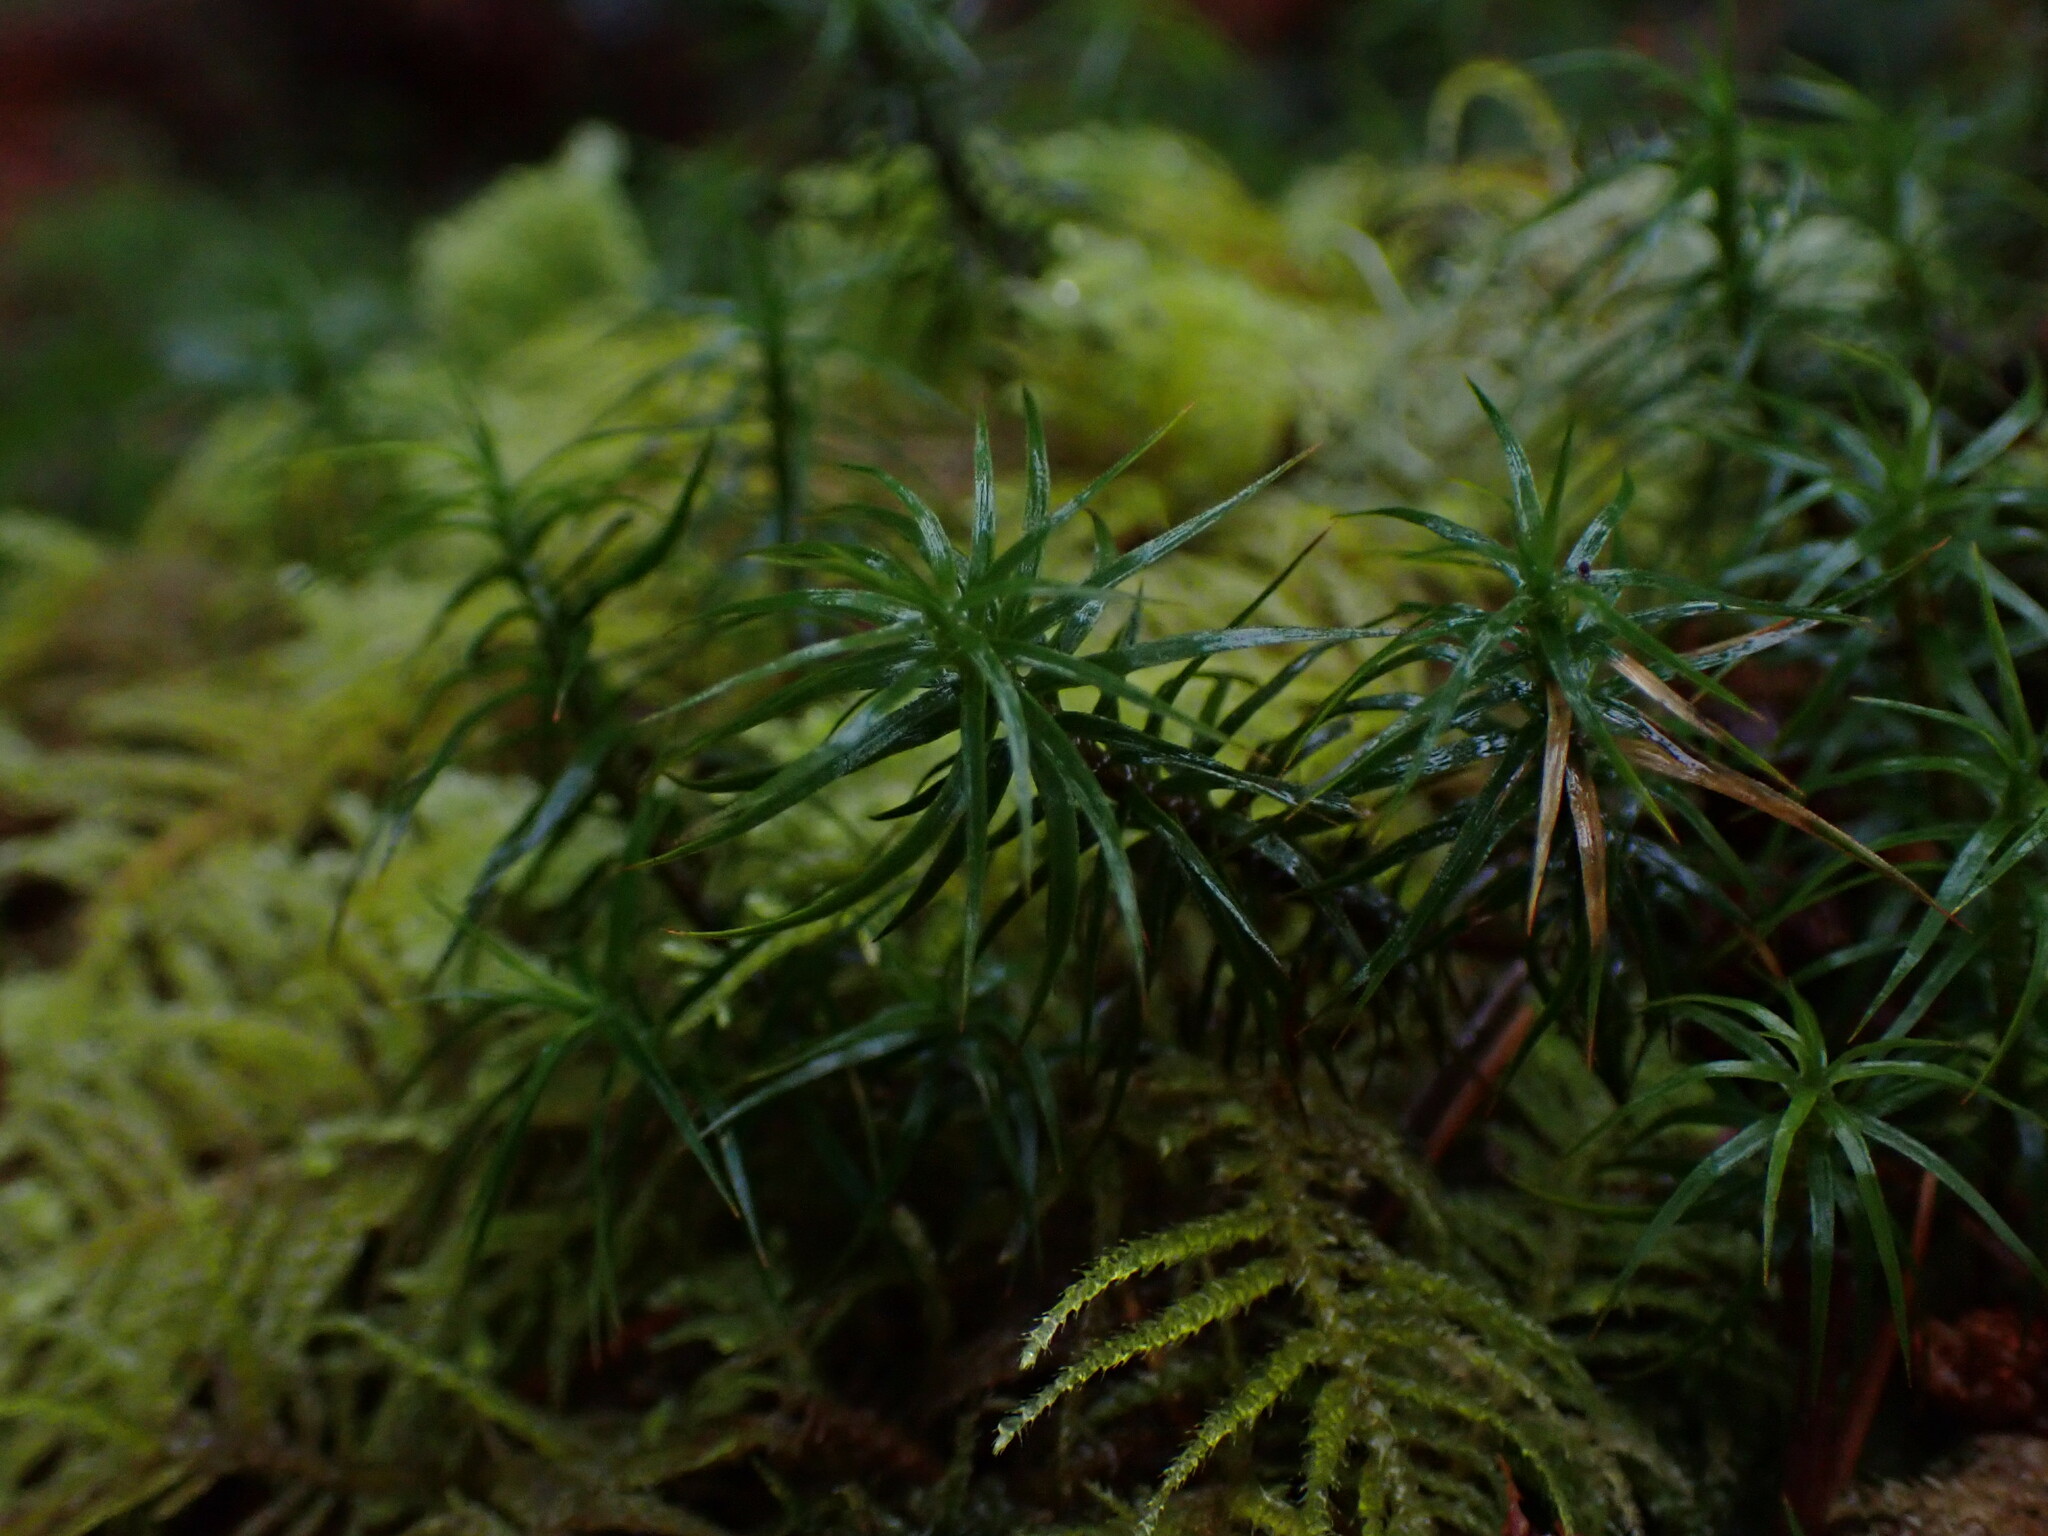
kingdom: Plantae
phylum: Bryophyta
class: Polytrichopsida
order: Polytrichales
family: Polytrichaceae
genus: Polytrichastrum
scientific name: Polytrichastrum alpinum
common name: Alpine haircap
